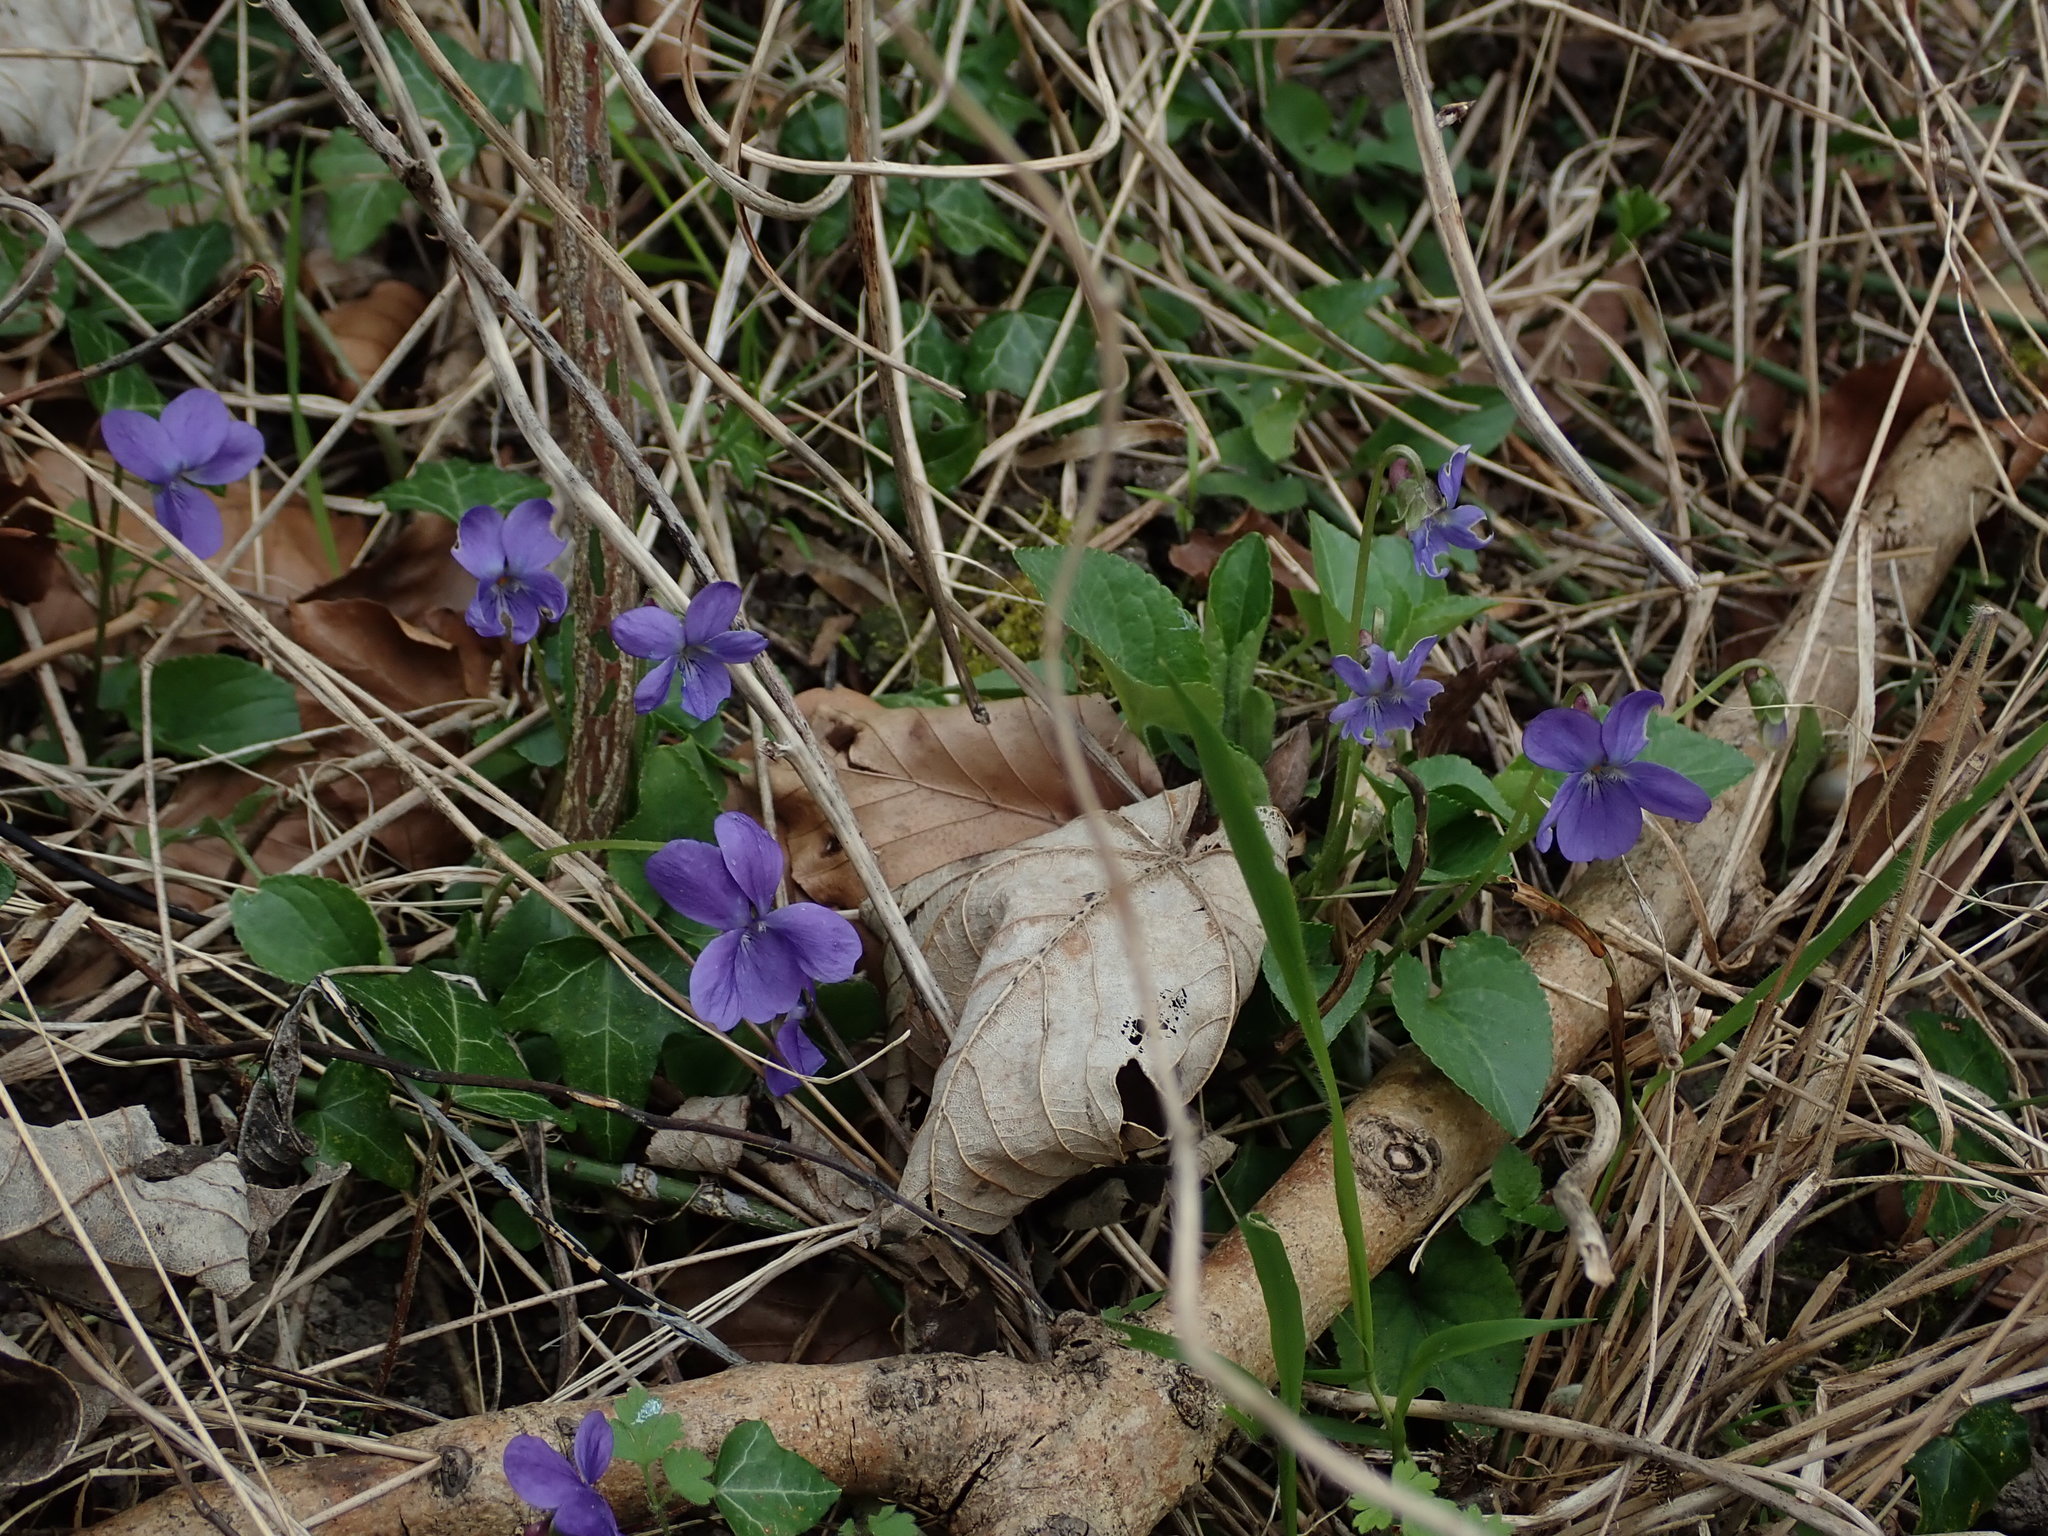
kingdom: Plantae
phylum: Tracheophyta
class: Magnoliopsida
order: Malpighiales
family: Violaceae
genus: Viola
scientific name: Viola reichenbachiana
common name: Early dog-violet
